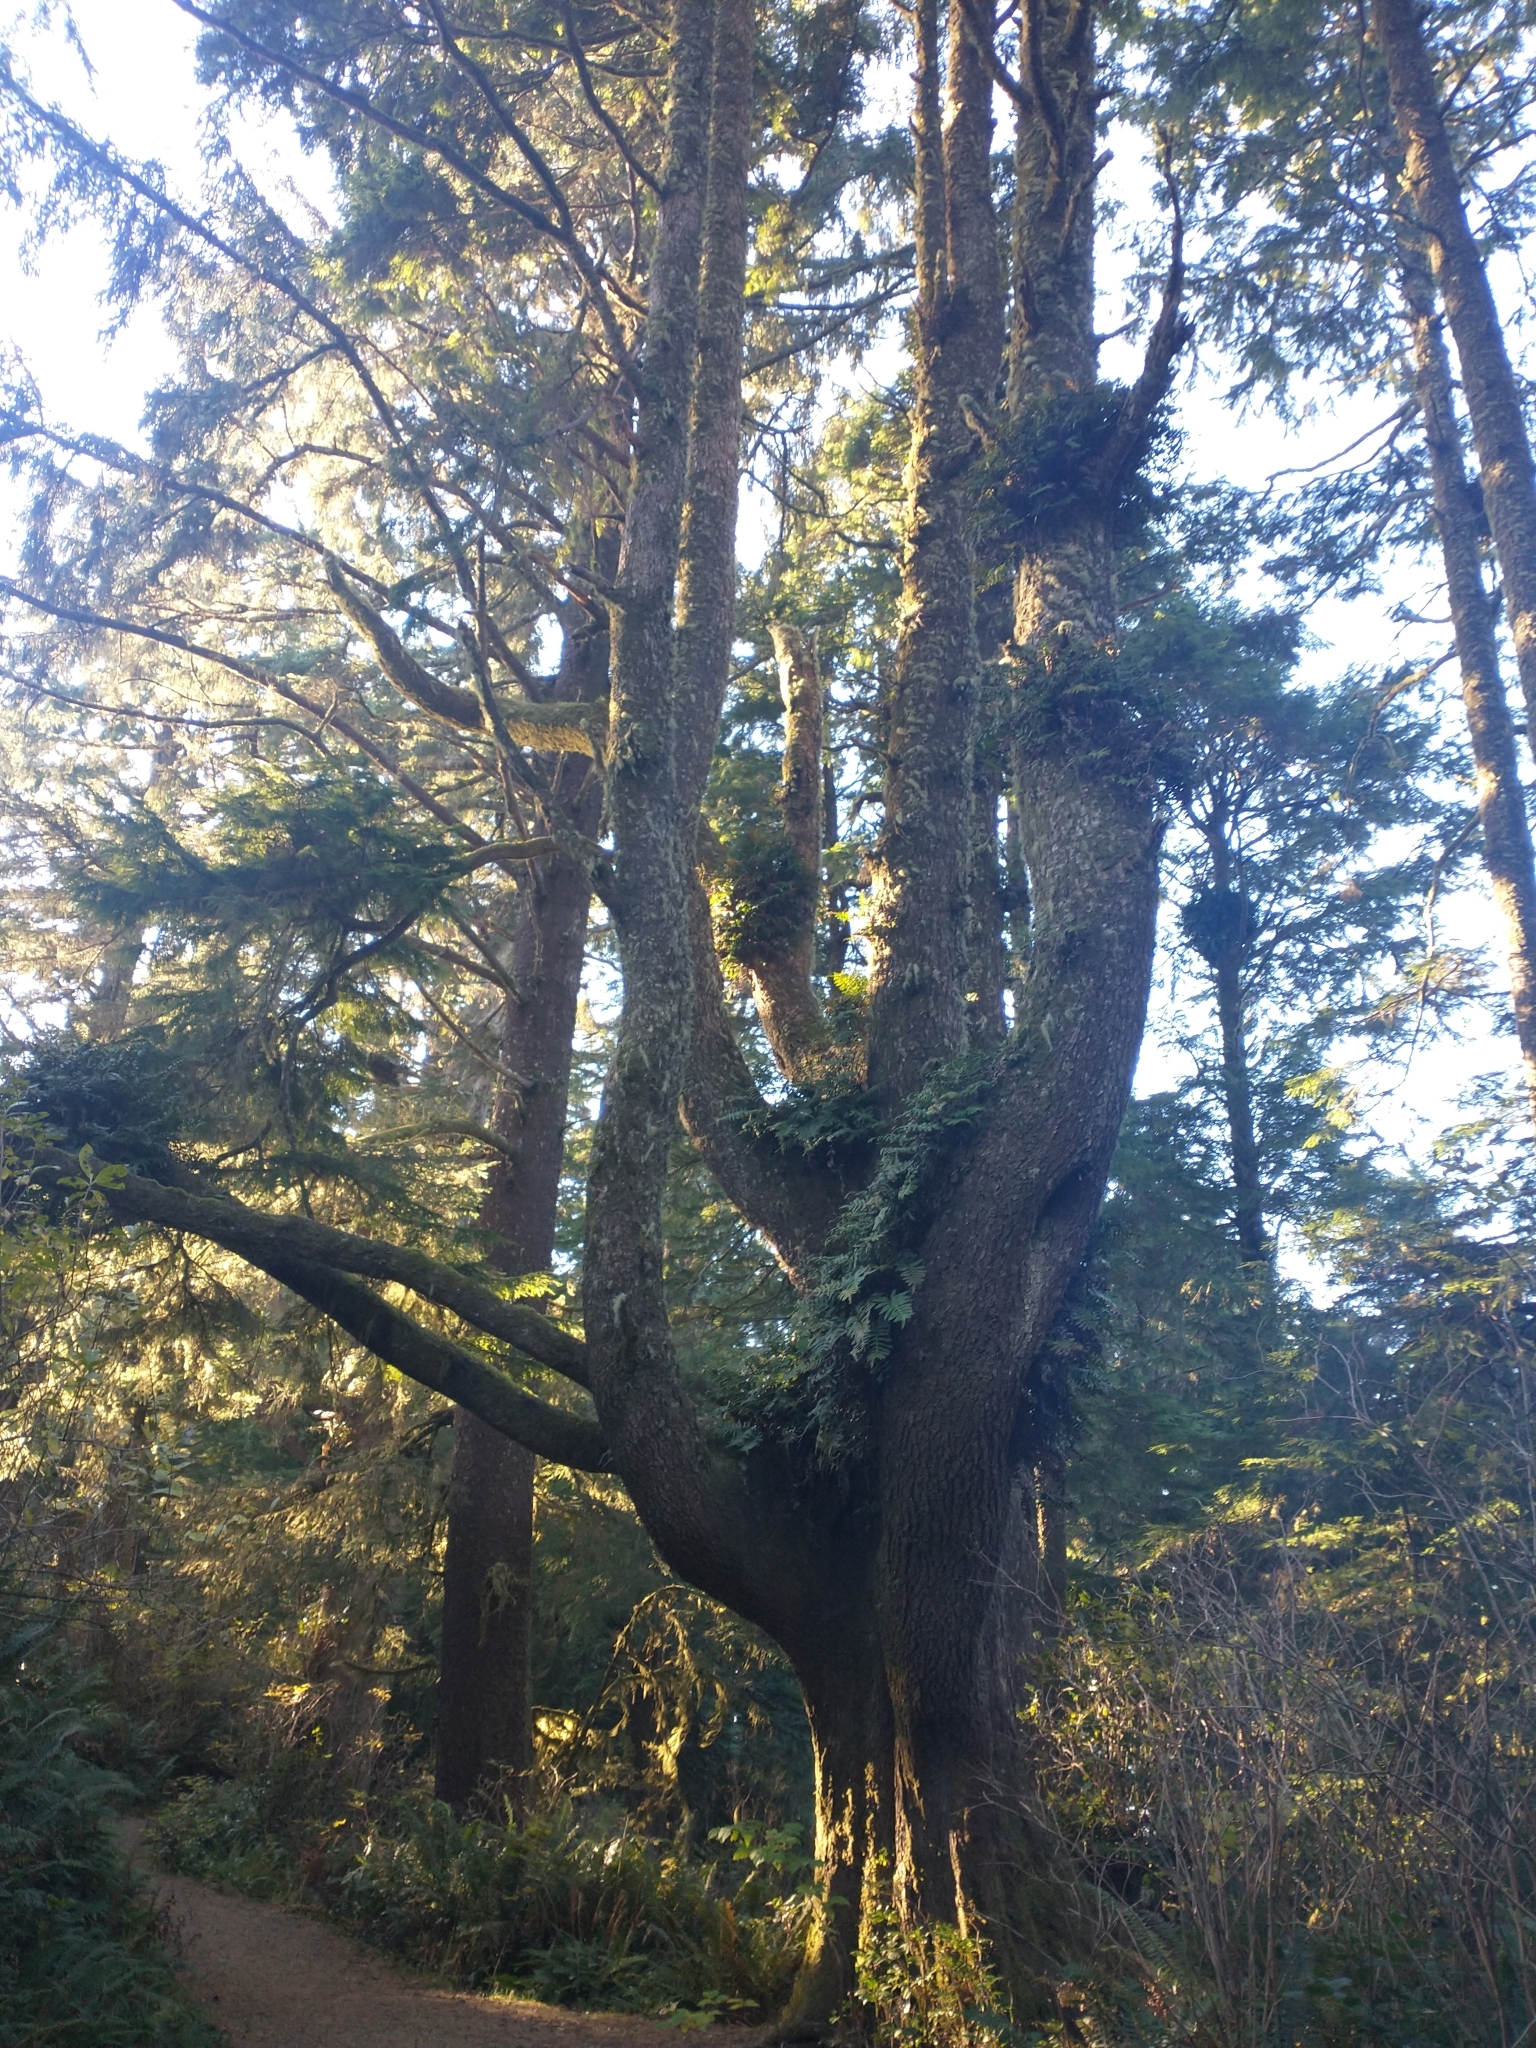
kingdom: Plantae
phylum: Tracheophyta
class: Polypodiopsida
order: Polypodiales
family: Polypodiaceae
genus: Polypodium
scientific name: Polypodium scouleri
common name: Scouler's polypody
